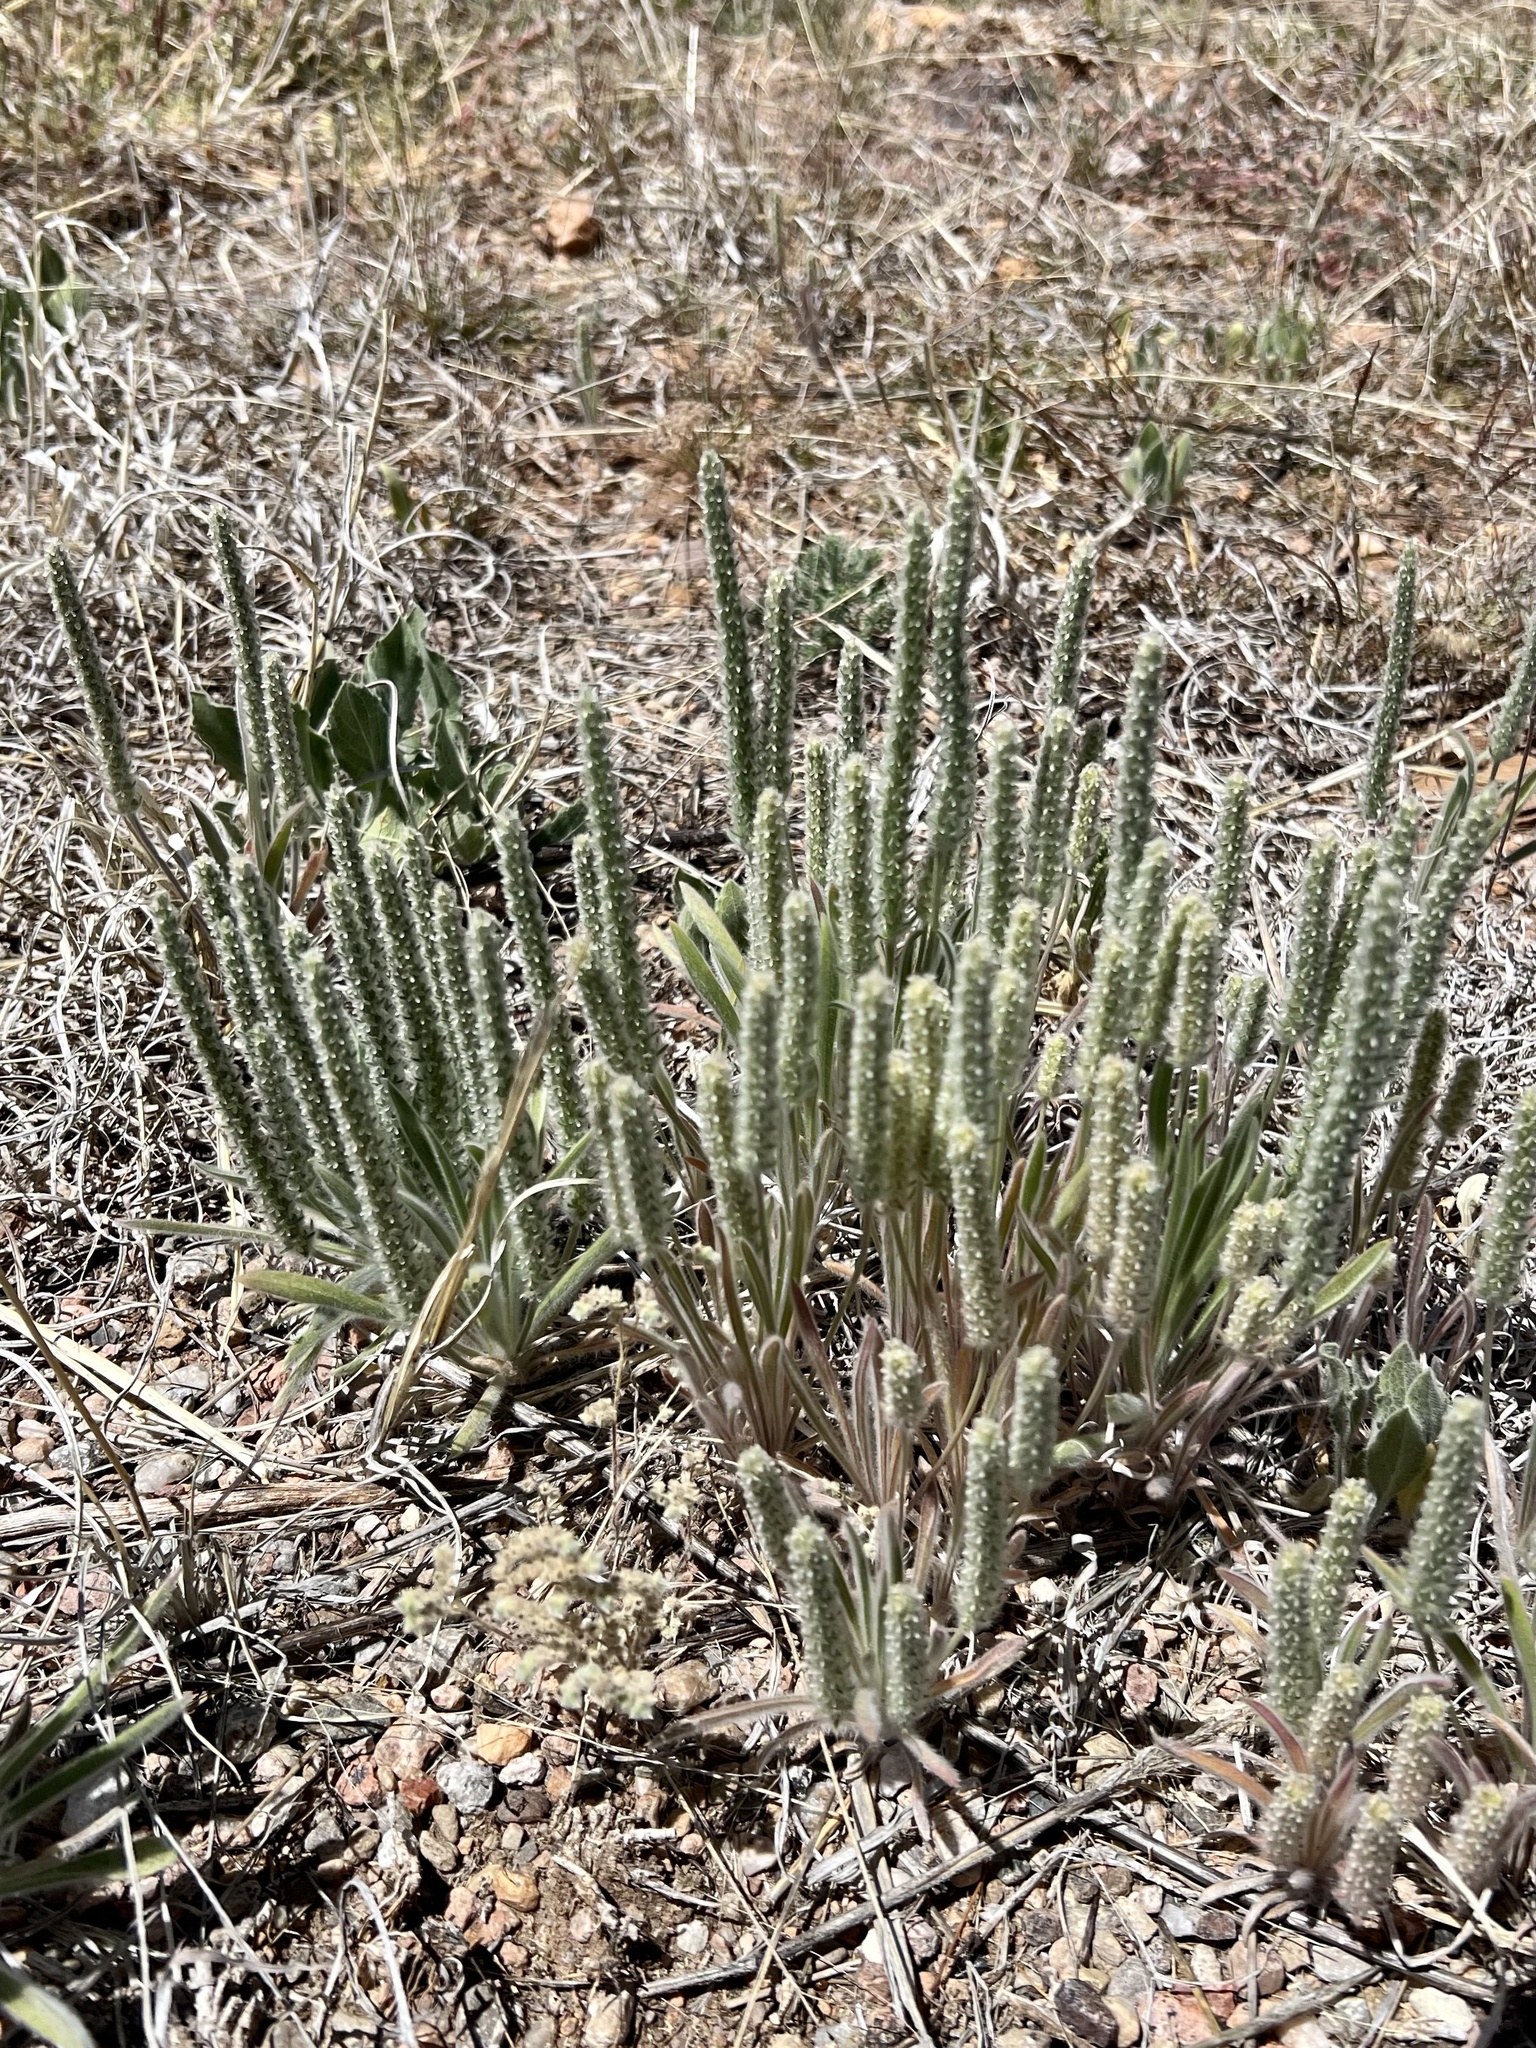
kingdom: Plantae
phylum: Tracheophyta
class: Magnoliopsida
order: Lamiales
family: Plantaginaceae
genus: Plantago
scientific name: Plantago patagonica
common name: Patagonia indian-wheat
